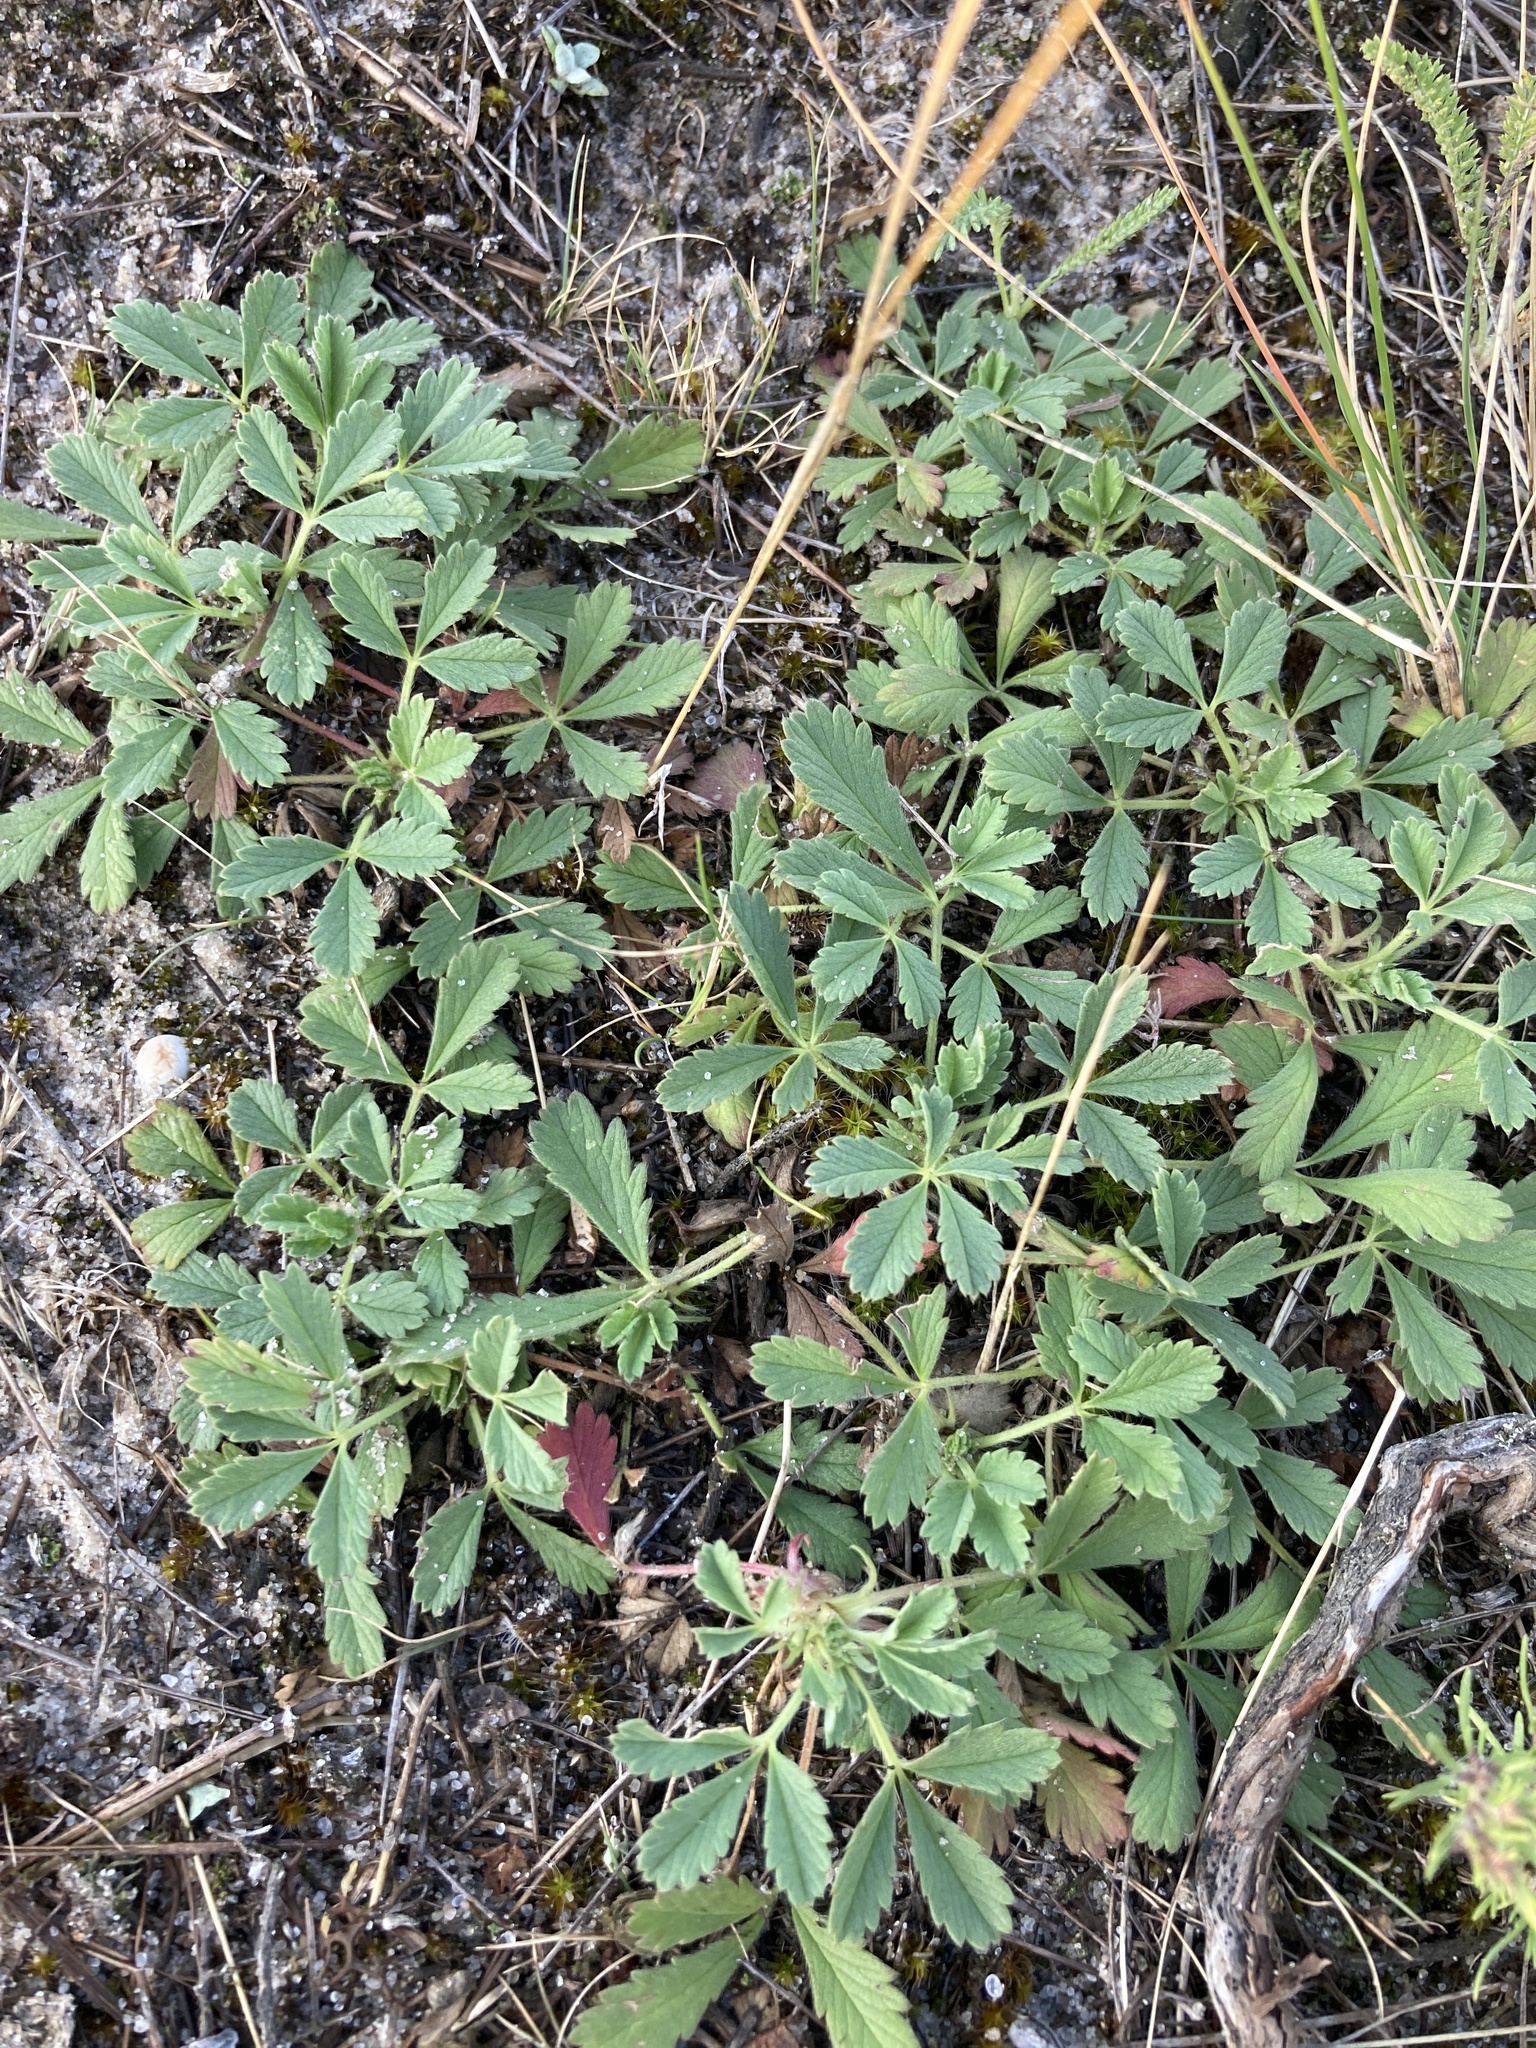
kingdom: Plantae
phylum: Tracheophyta
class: Magnoliopsida
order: Rosales
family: Rosaceae
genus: Potentilla
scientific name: Potentilla incana
